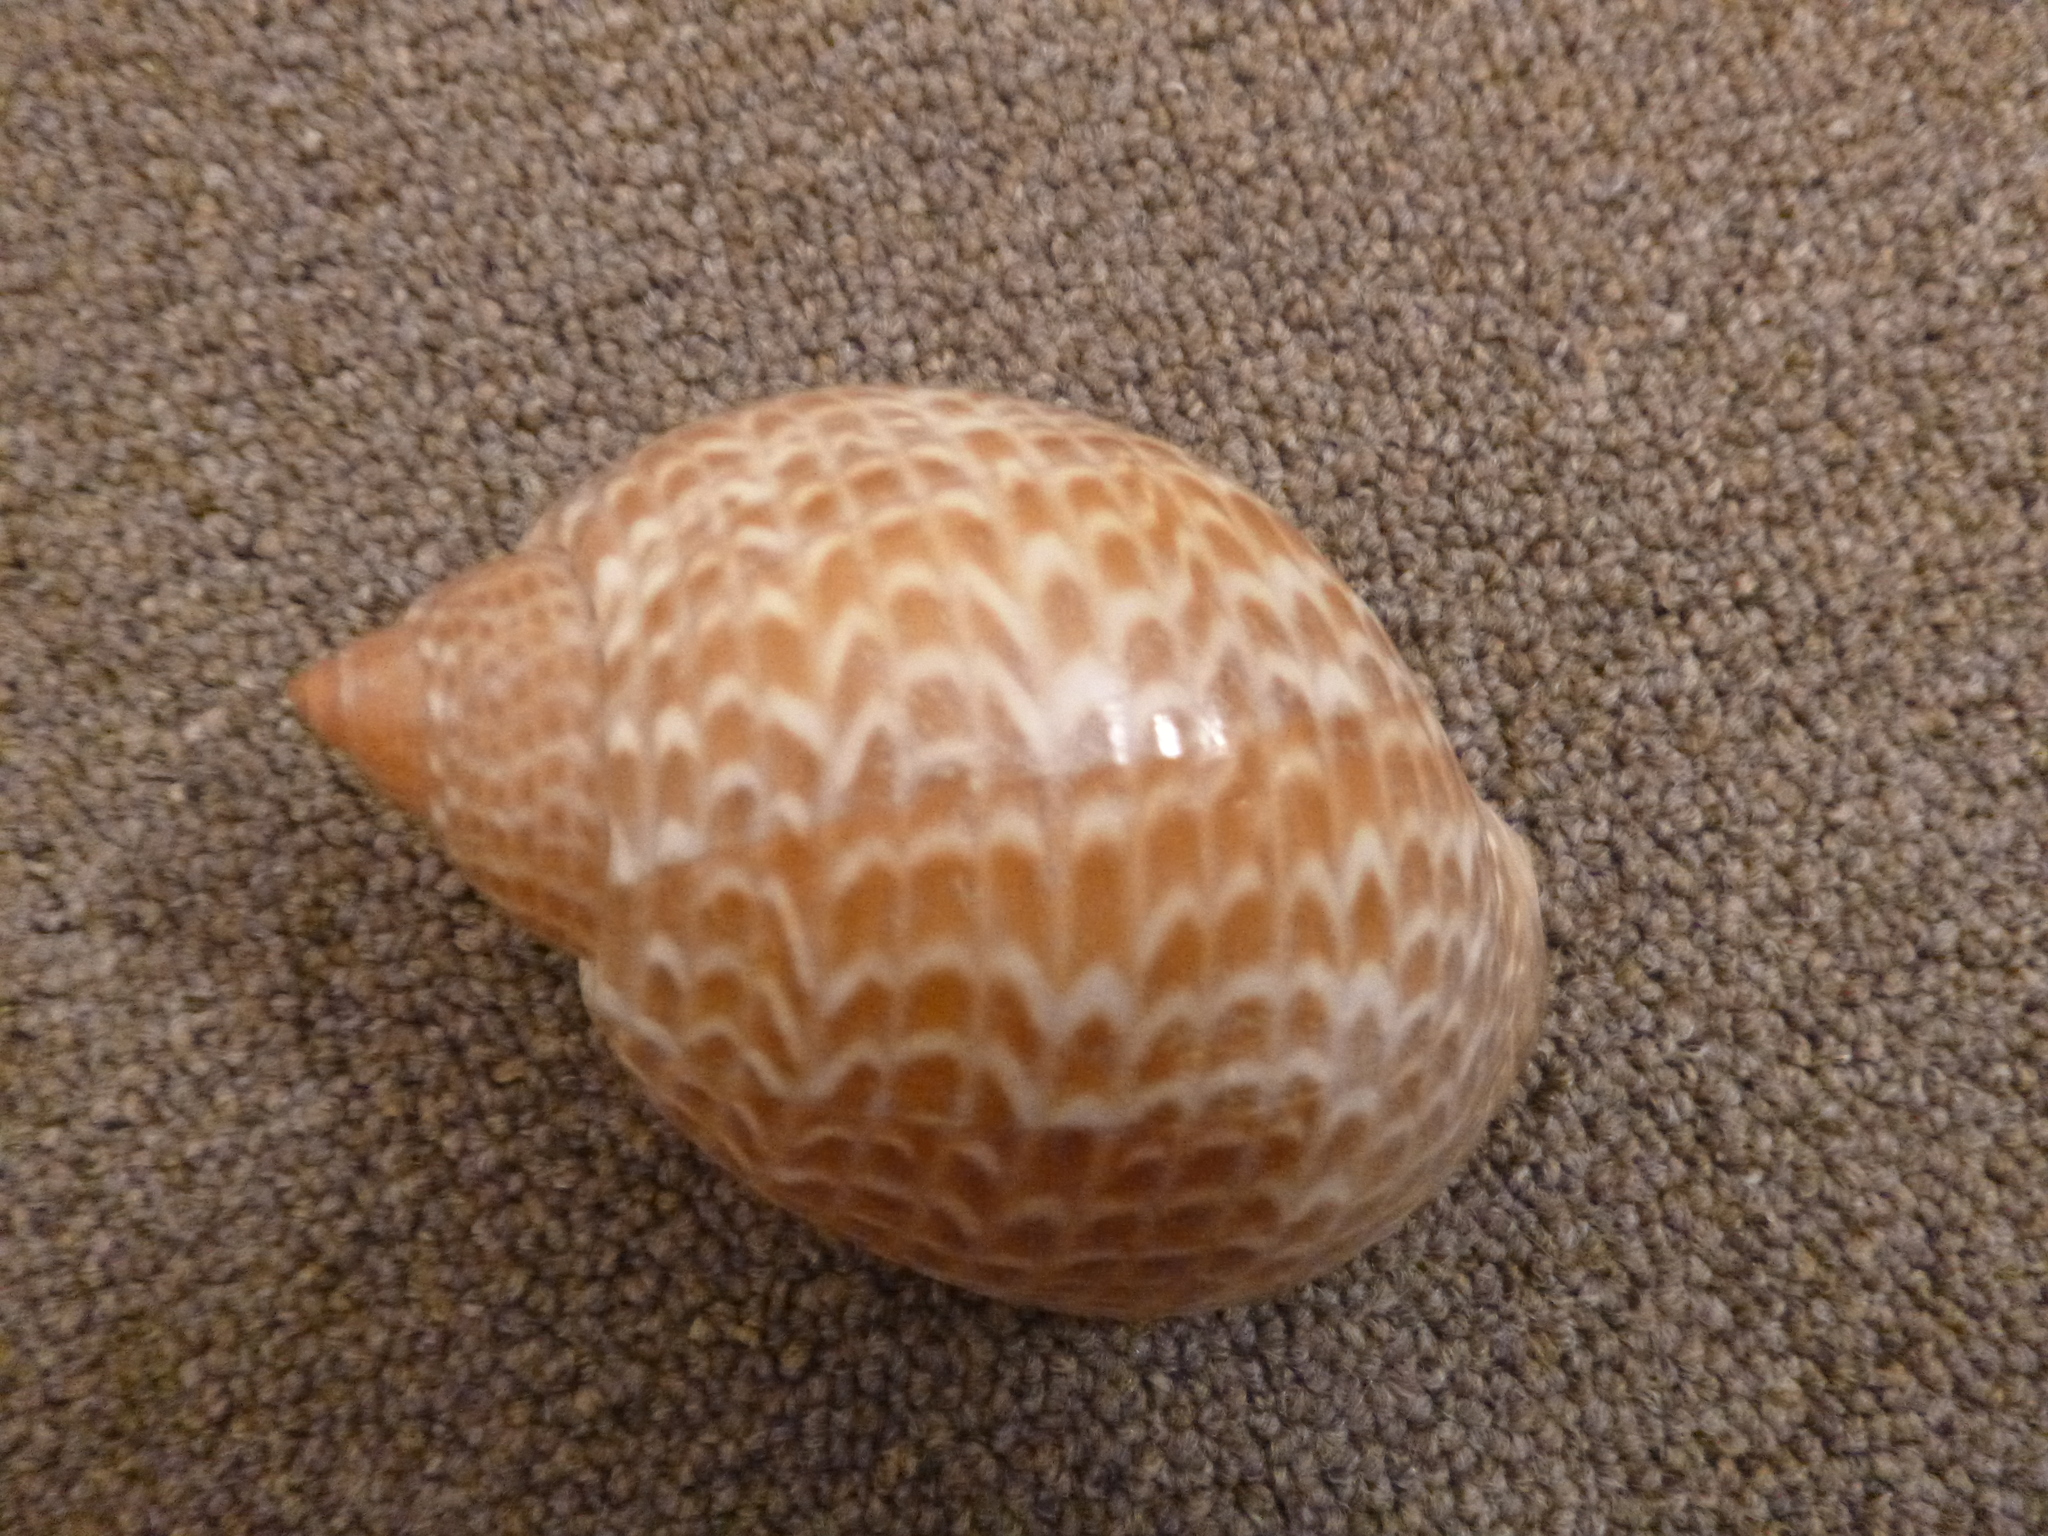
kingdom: Animalia
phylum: Mollusca
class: Gastropoda
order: Littorinimorpha
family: Tonnidae
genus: Tonna
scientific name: Tonna perdix
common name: Pacific partridge tun
